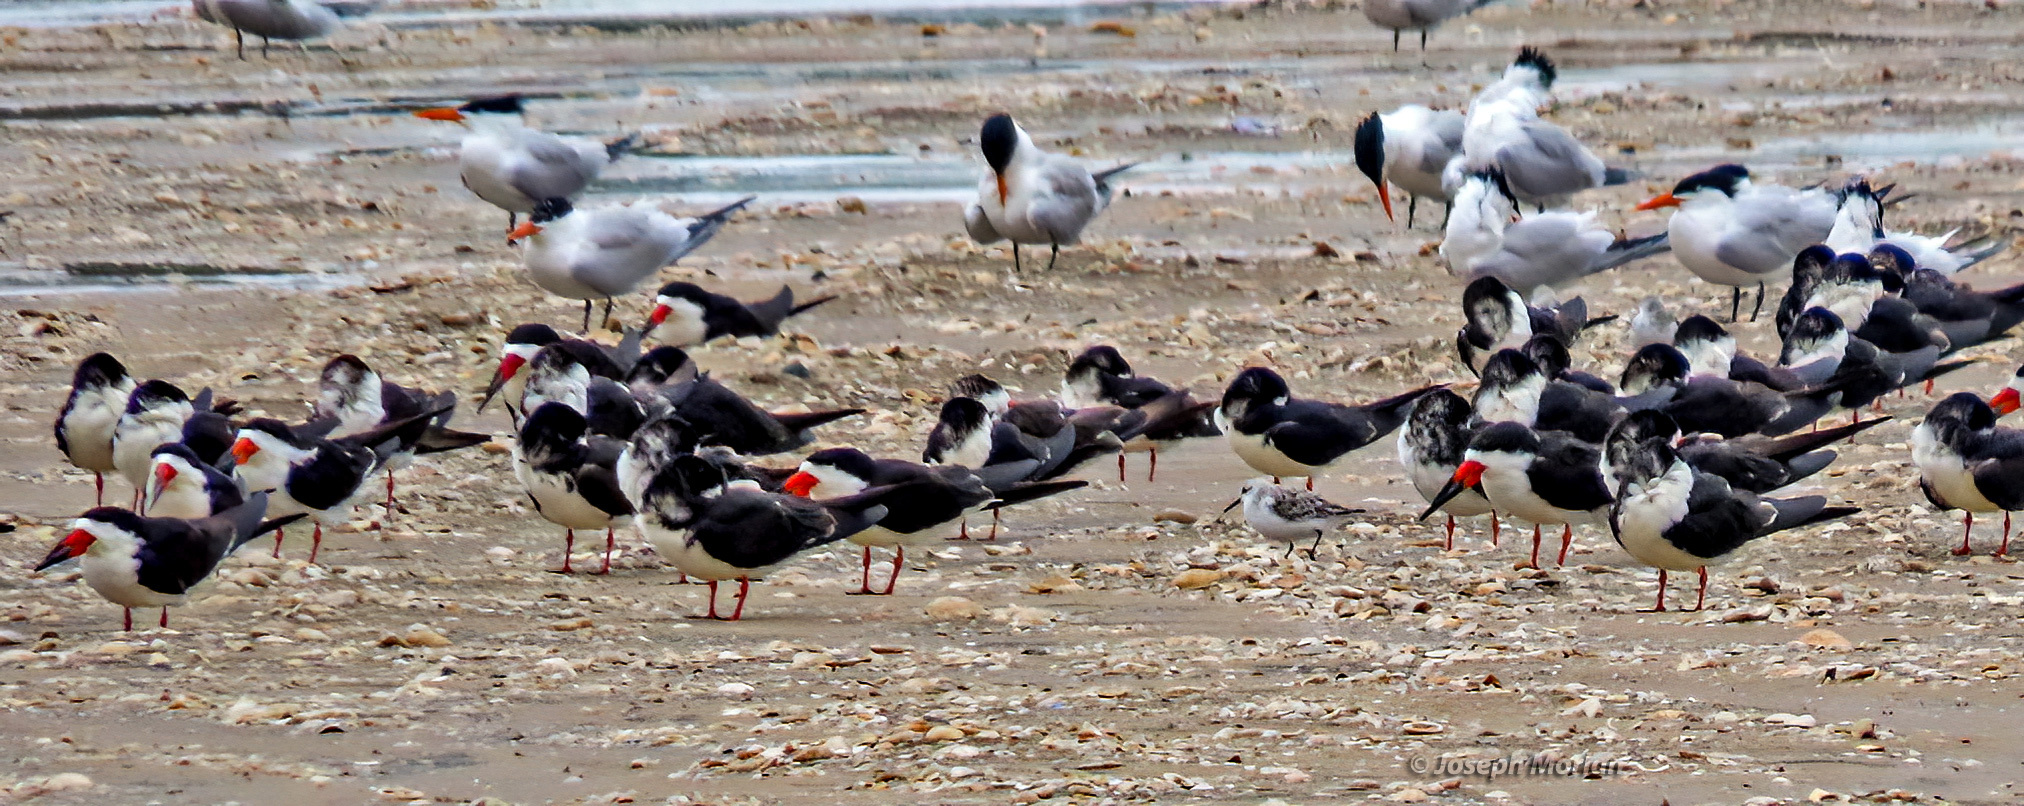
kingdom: Animalia
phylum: Chordata
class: Aves
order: Charadriiformes
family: Laridae
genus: Rynchops
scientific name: Rynchops niger
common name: Black skimmer
